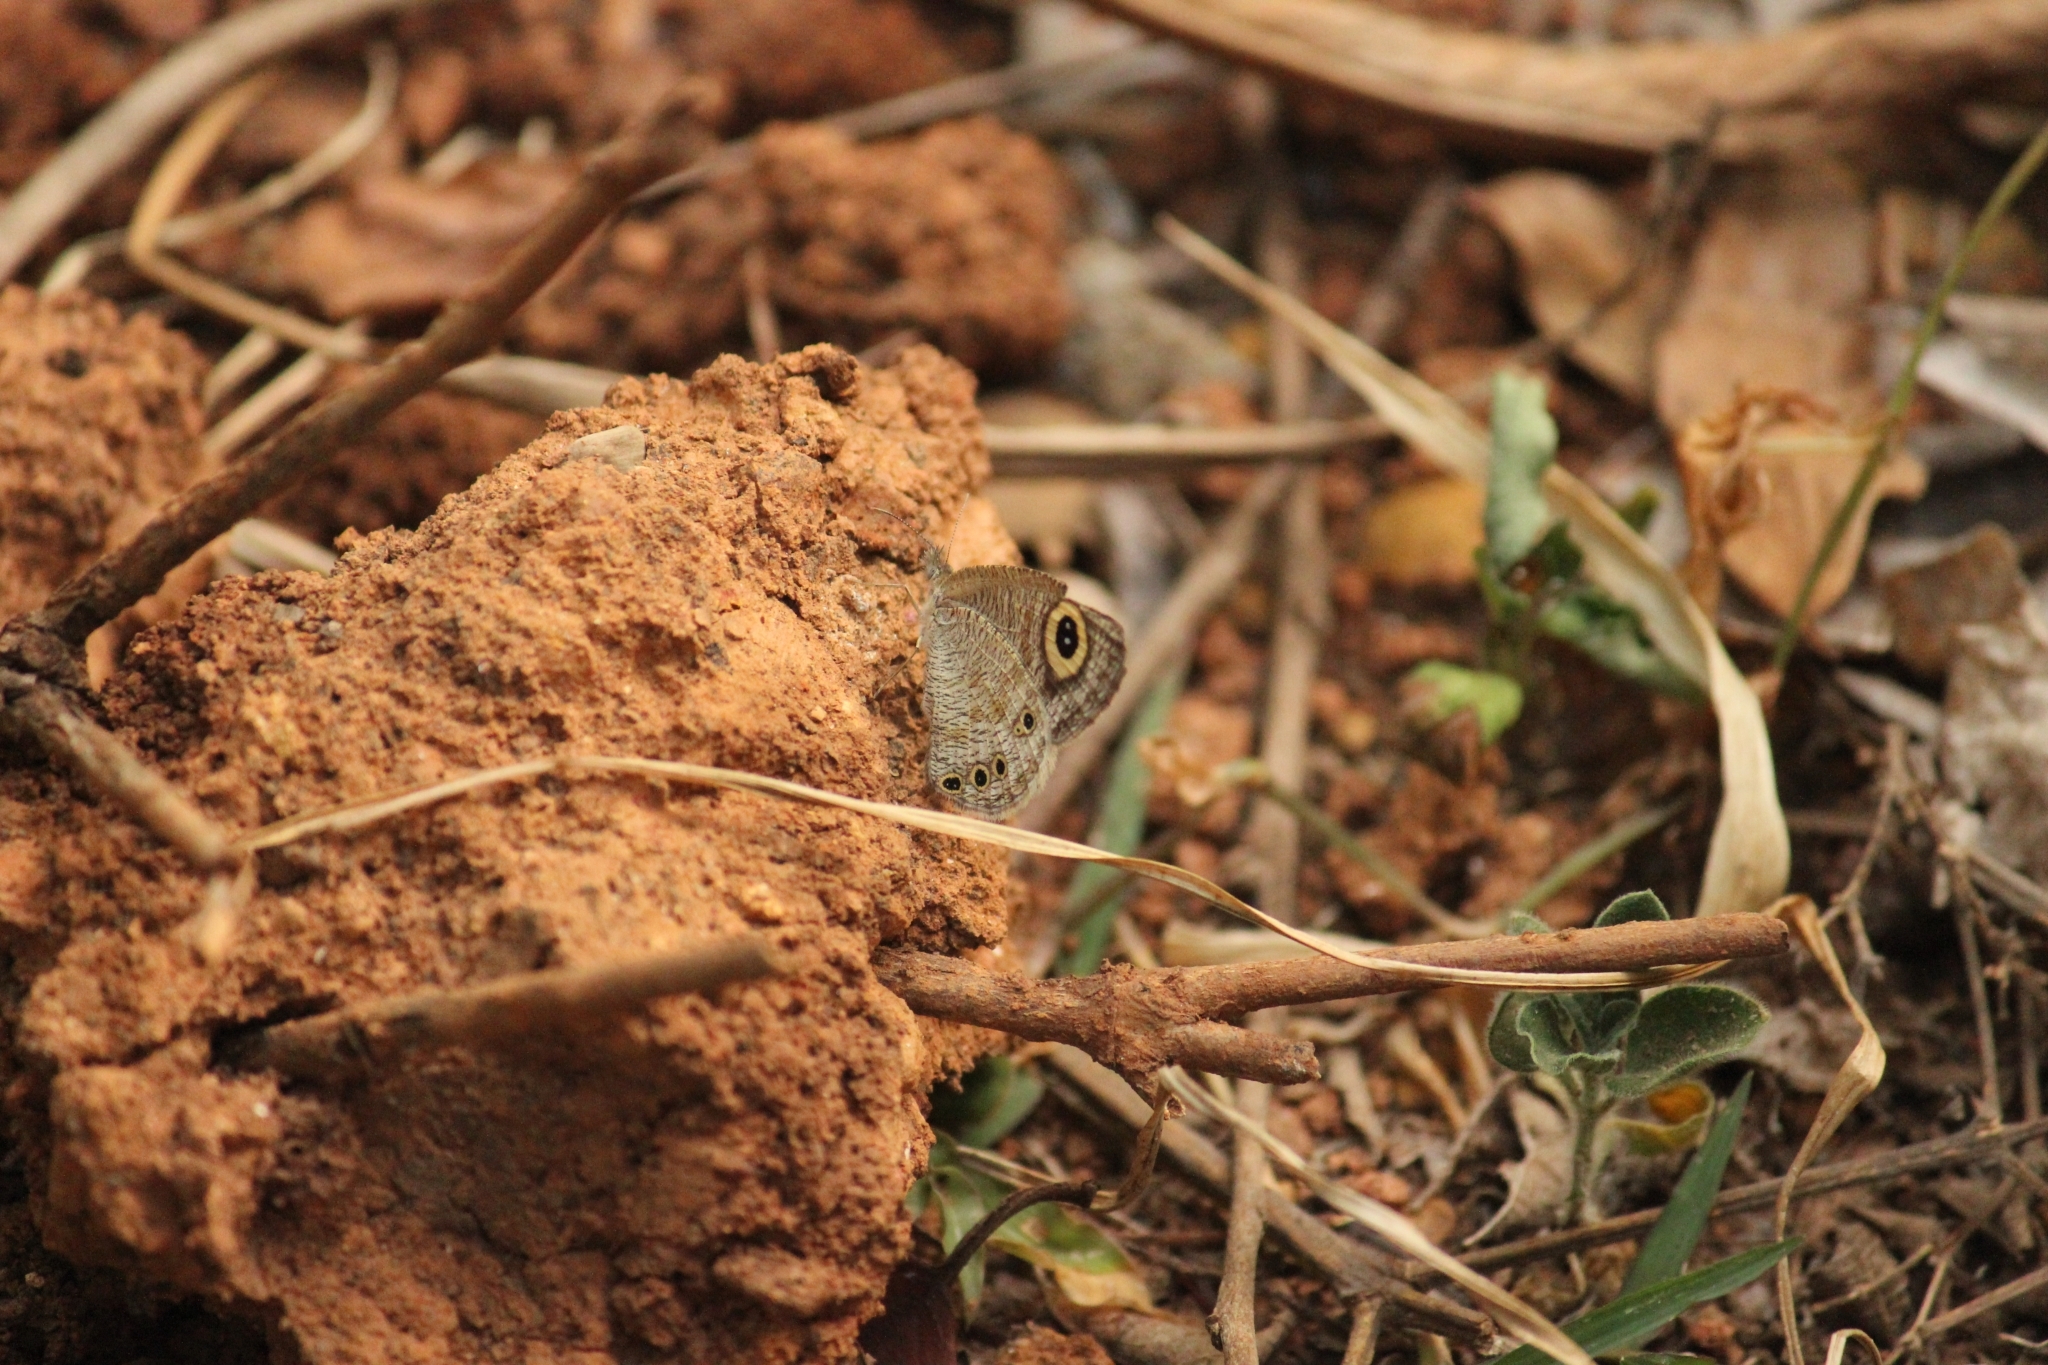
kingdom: Animalia
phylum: Arthropoda
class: Insecta
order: Lepidoptera
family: Nymphalidae
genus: Ypthima
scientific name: Ypthima huebneri
